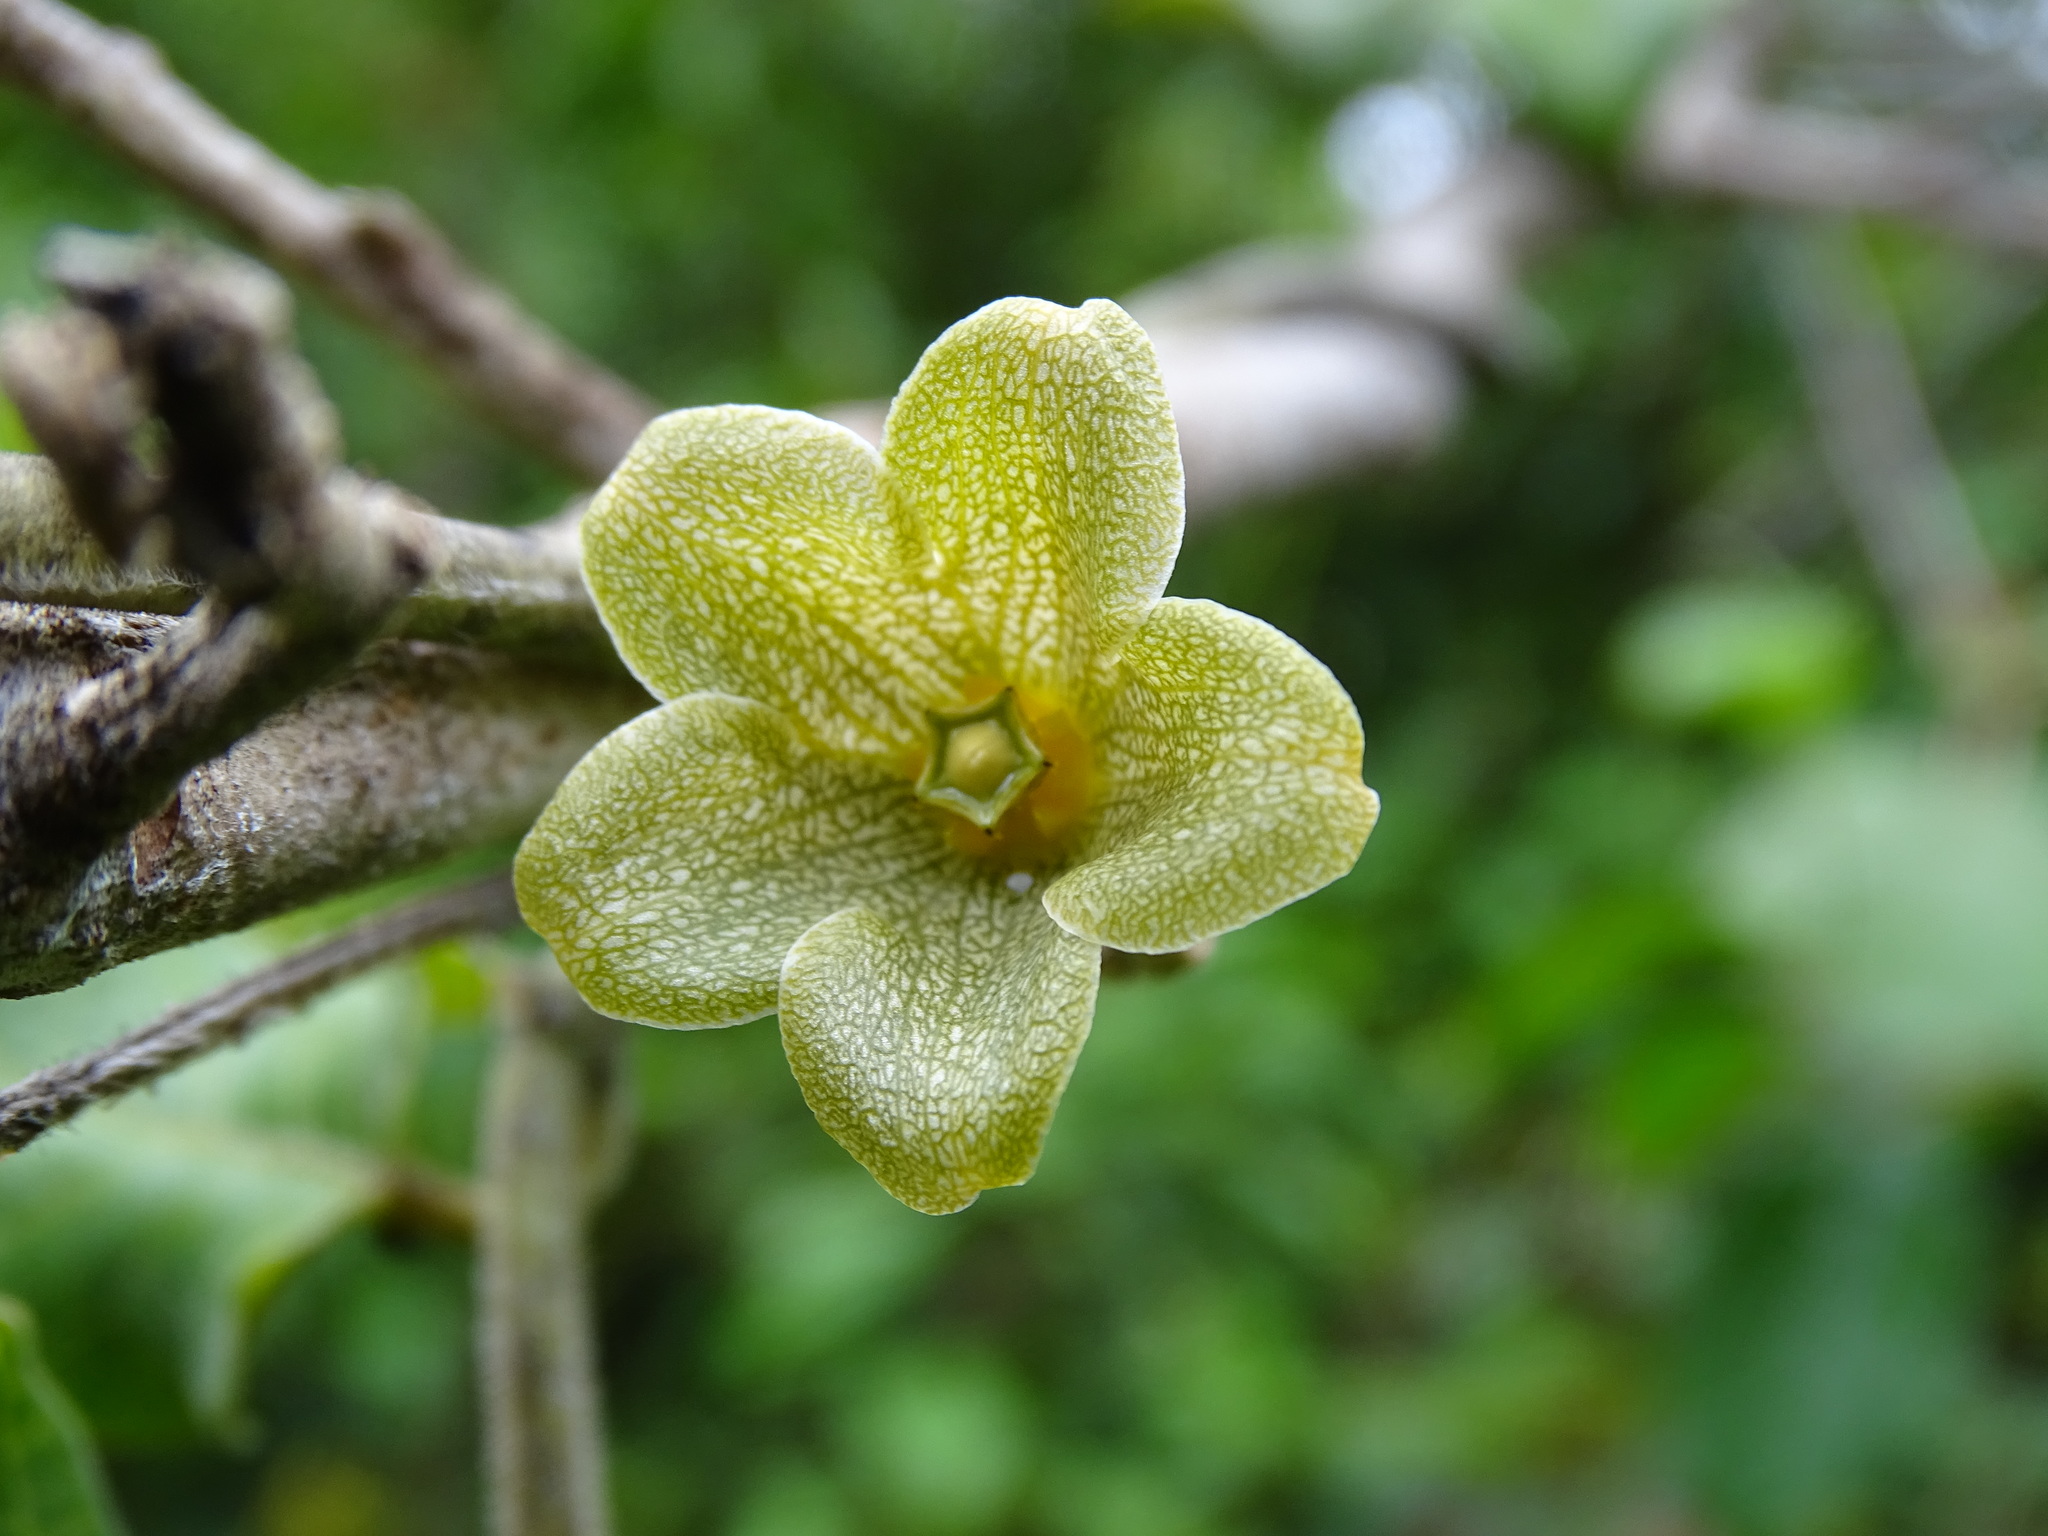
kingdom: Plantae
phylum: Tracheophyta
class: Magnoliopsida
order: Gentianales
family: Apocynaceae
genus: Matelea
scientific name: Matelea crassifolia
